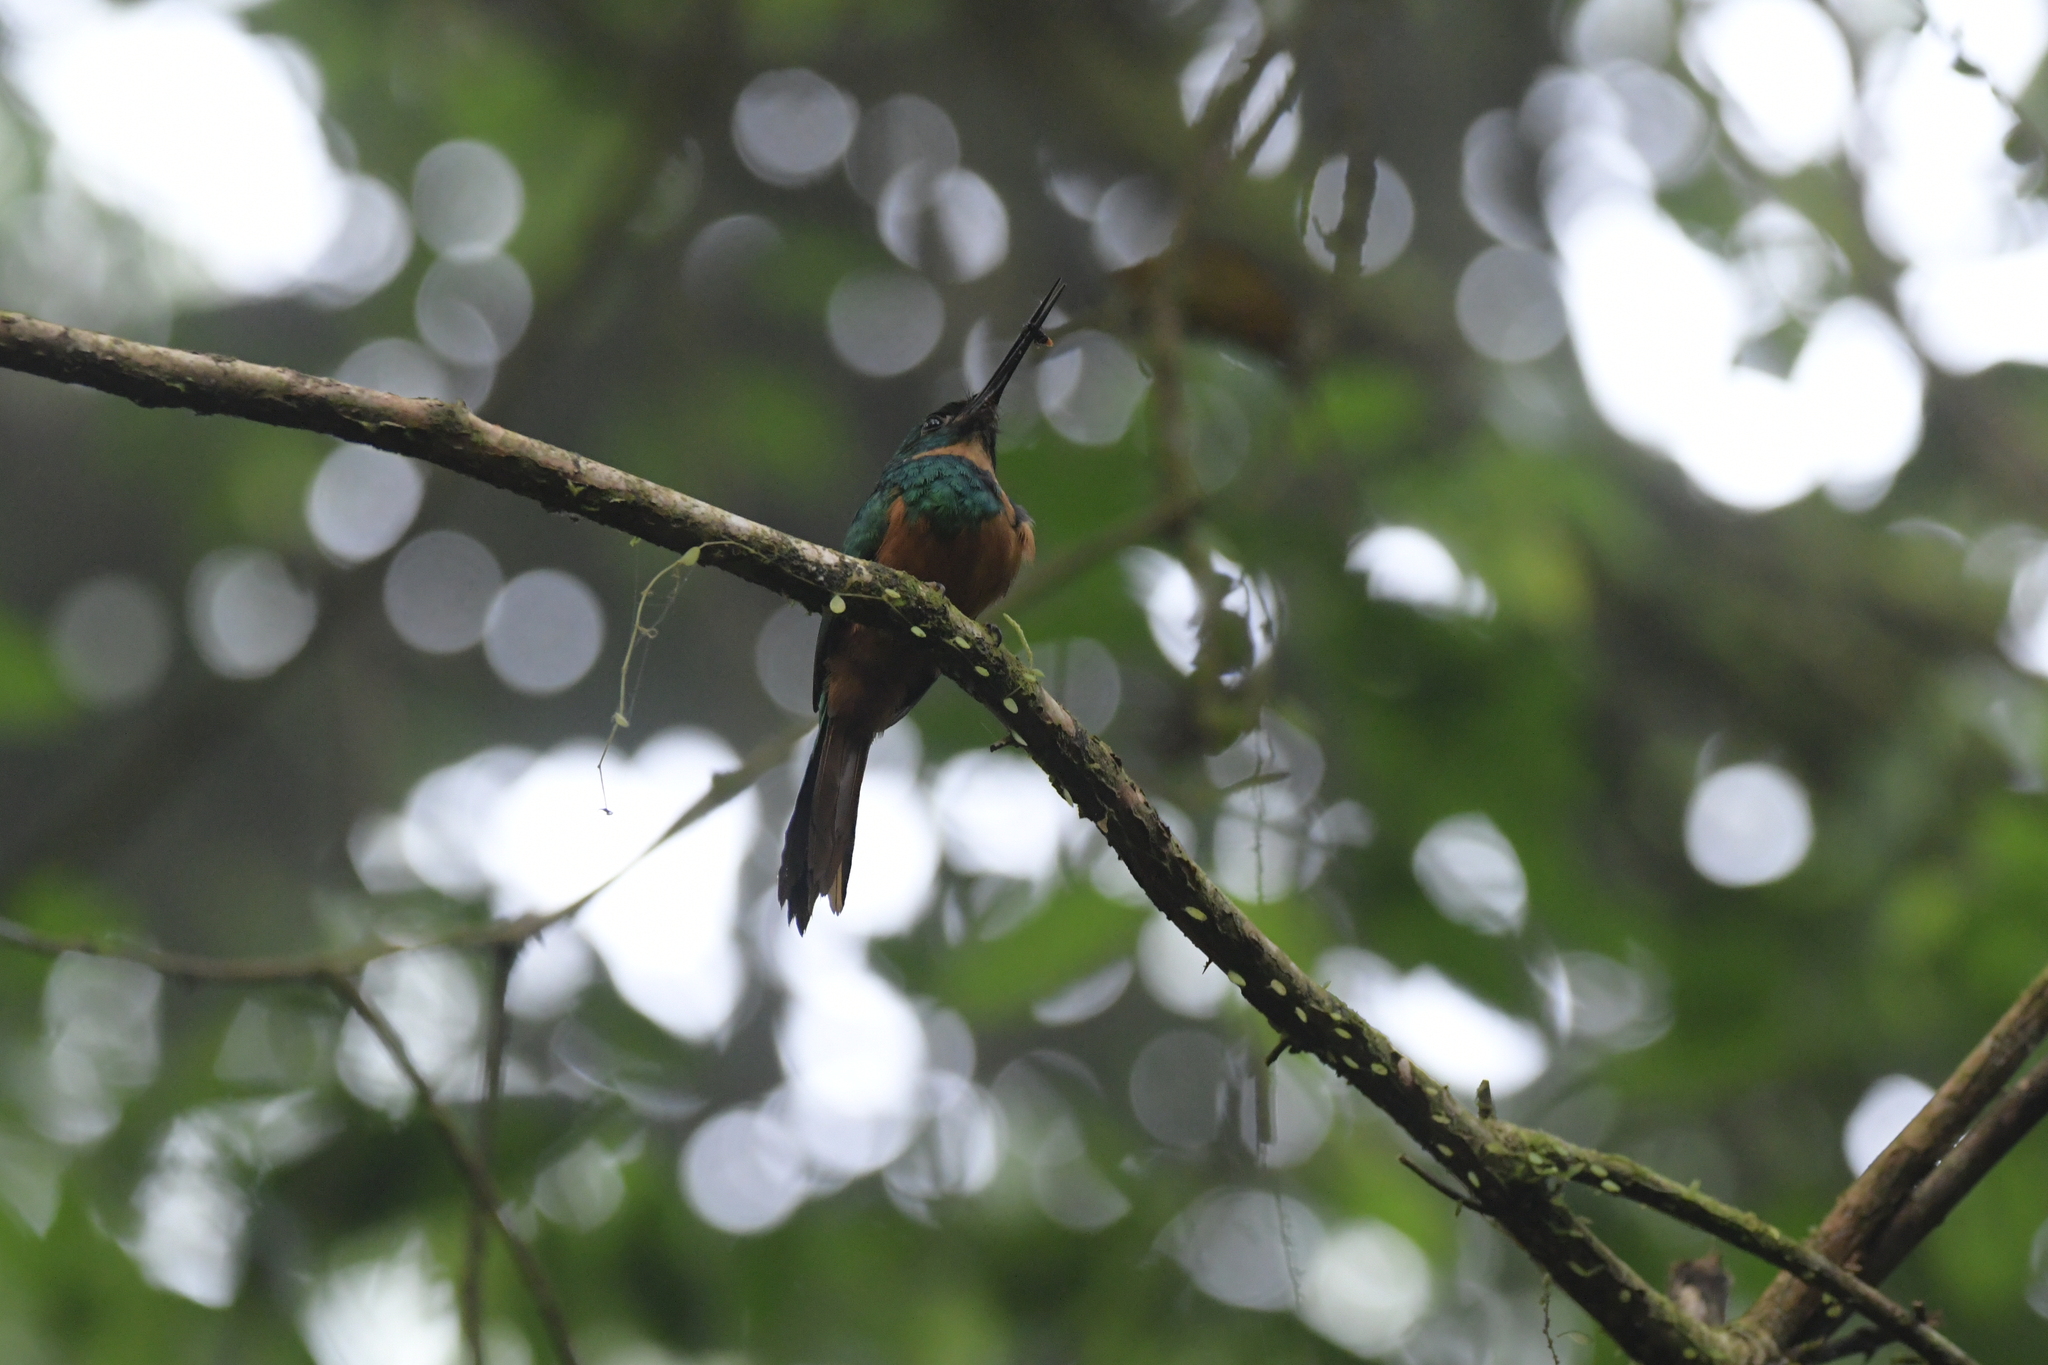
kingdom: Animalia
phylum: Chordata
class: Aves
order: Piciformes
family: Galbulidae
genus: Galbula
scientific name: Galbula ruficauda
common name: Rufous-tailed jacamar
